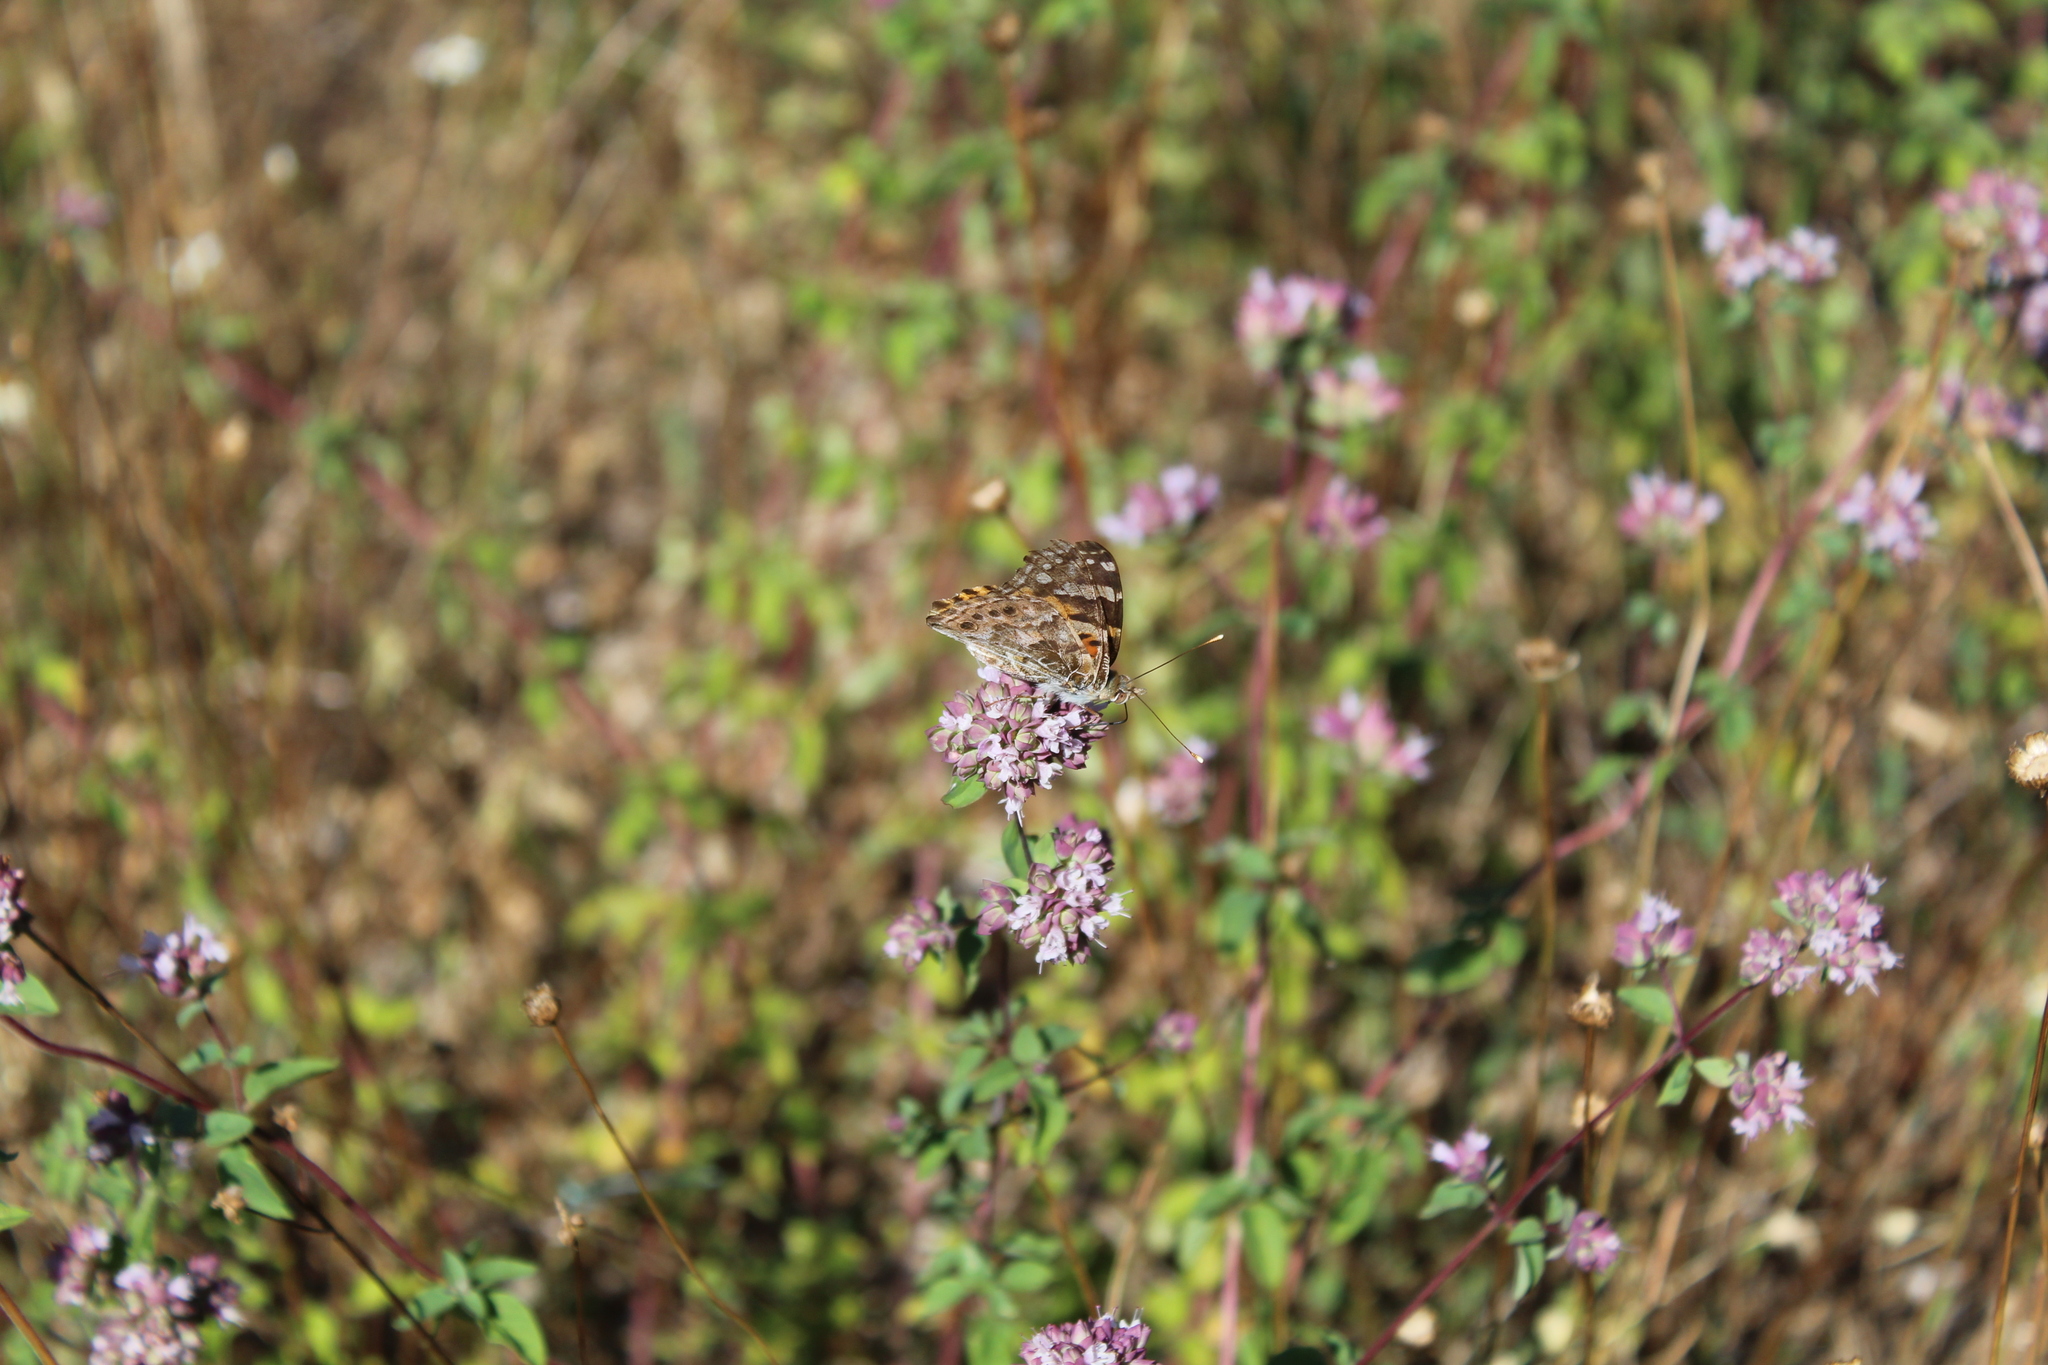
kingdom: Animalia
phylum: Arthropoda
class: Insecta
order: Lepidoptera
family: Nymphalidae
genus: Vanessa
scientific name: Vanessa cardui
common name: Painted lady
